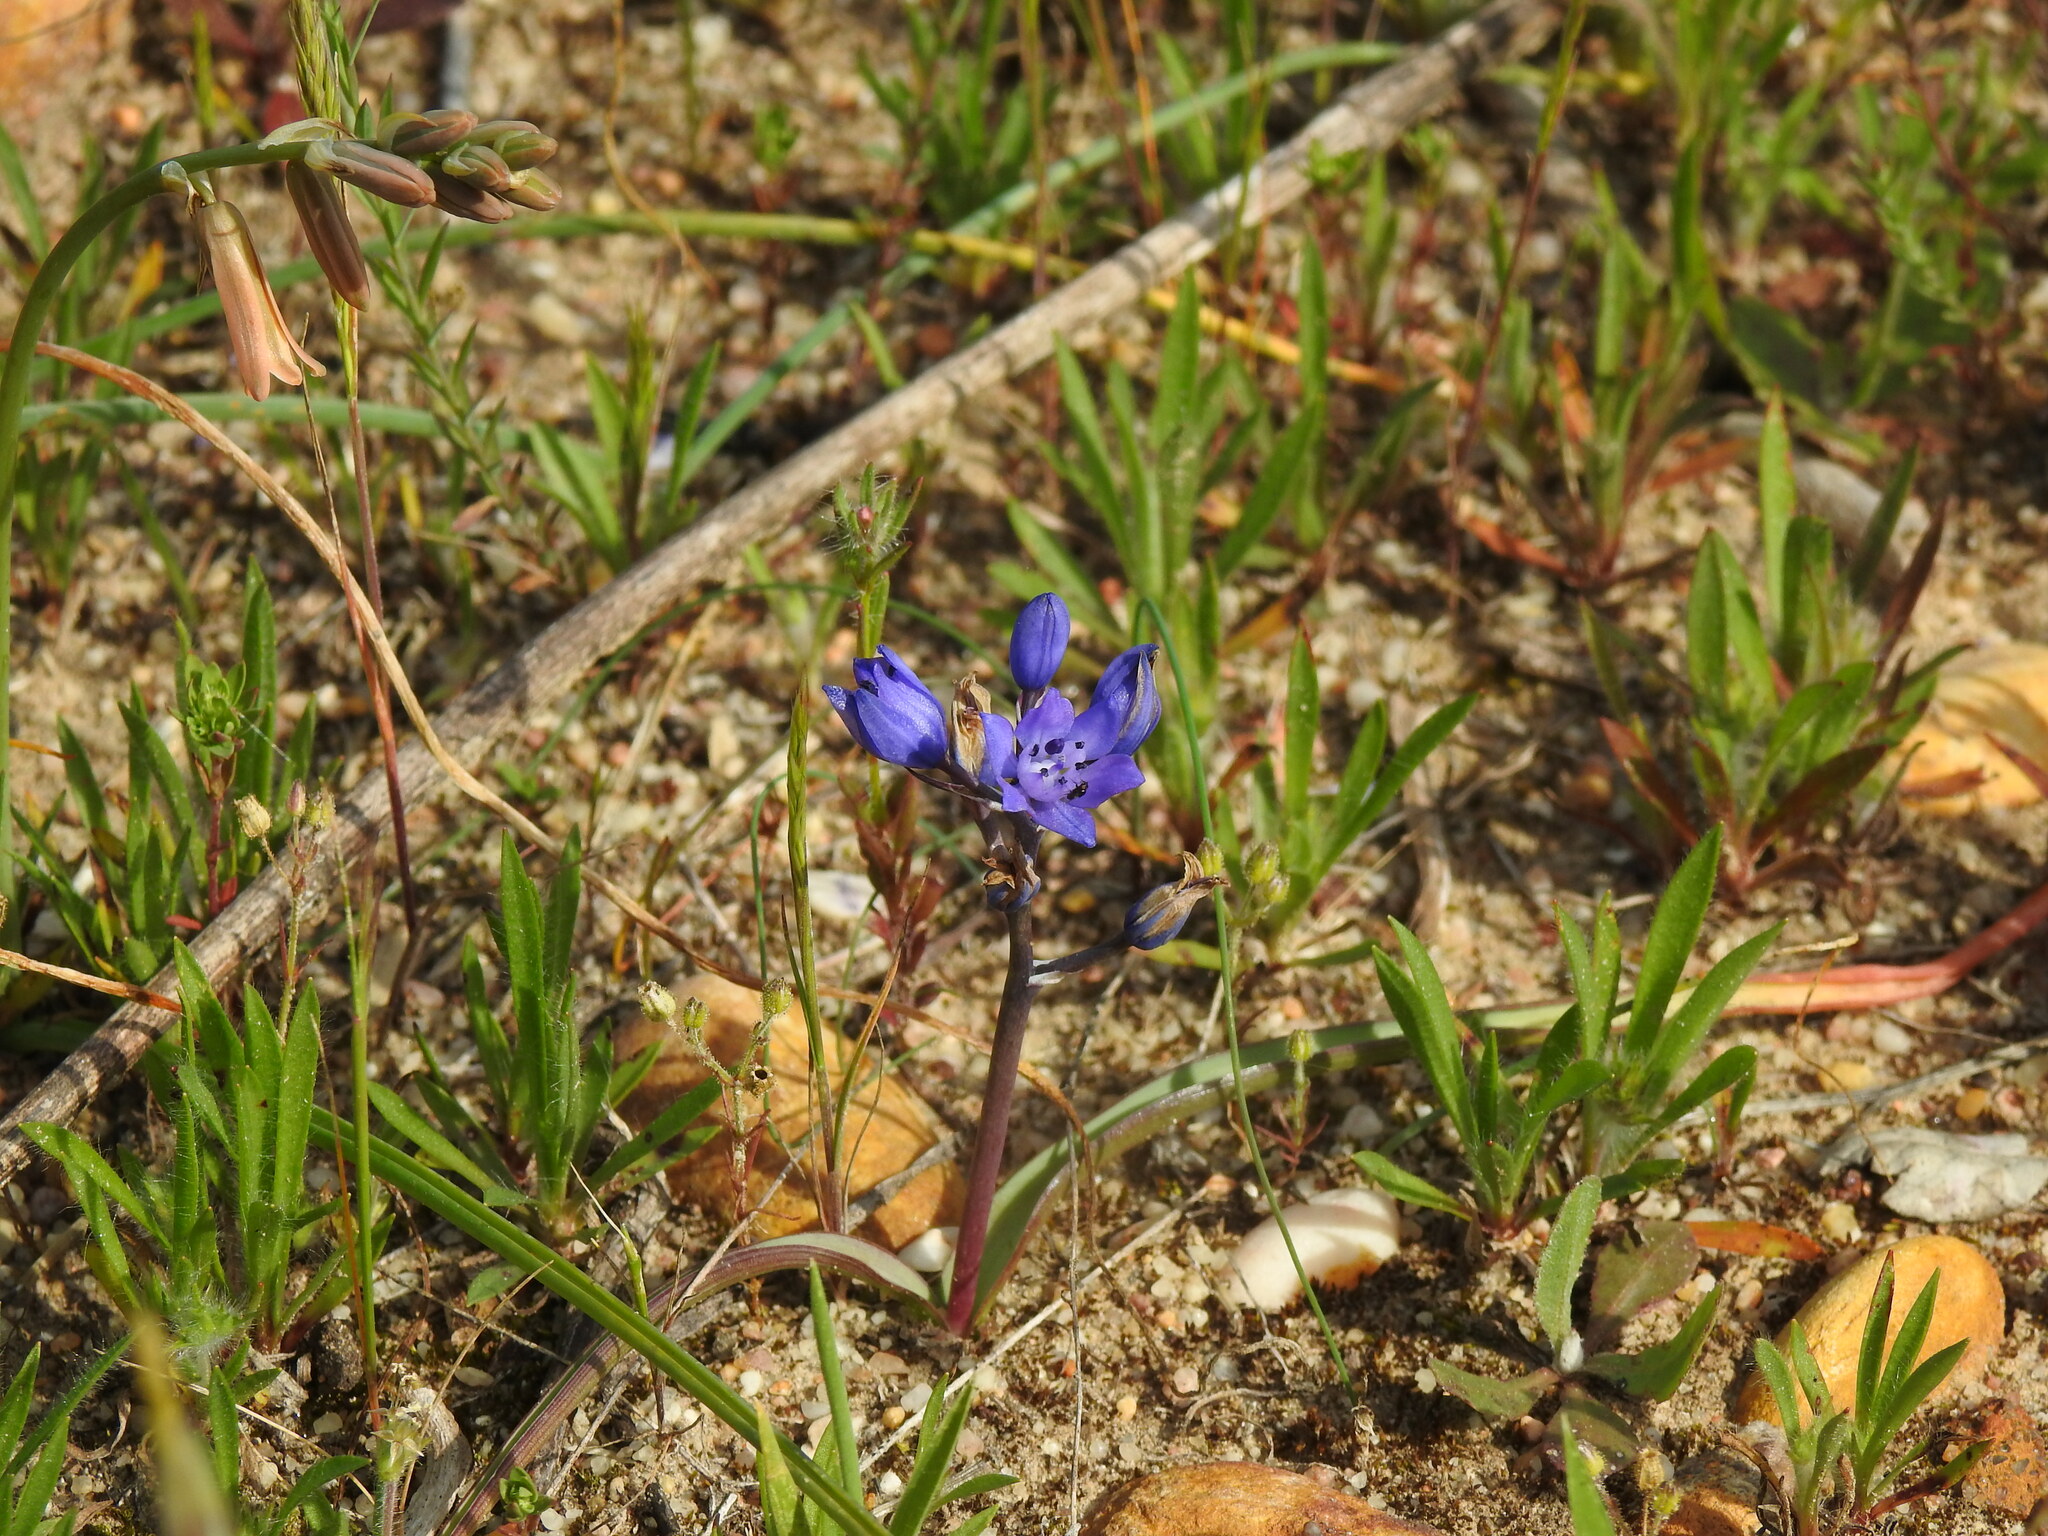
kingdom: Plantae
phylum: Tracheophyta
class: Liliopsida
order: Asparagales
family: Asparagaceae
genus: Scilla
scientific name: Scilla verna
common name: Spring squill
